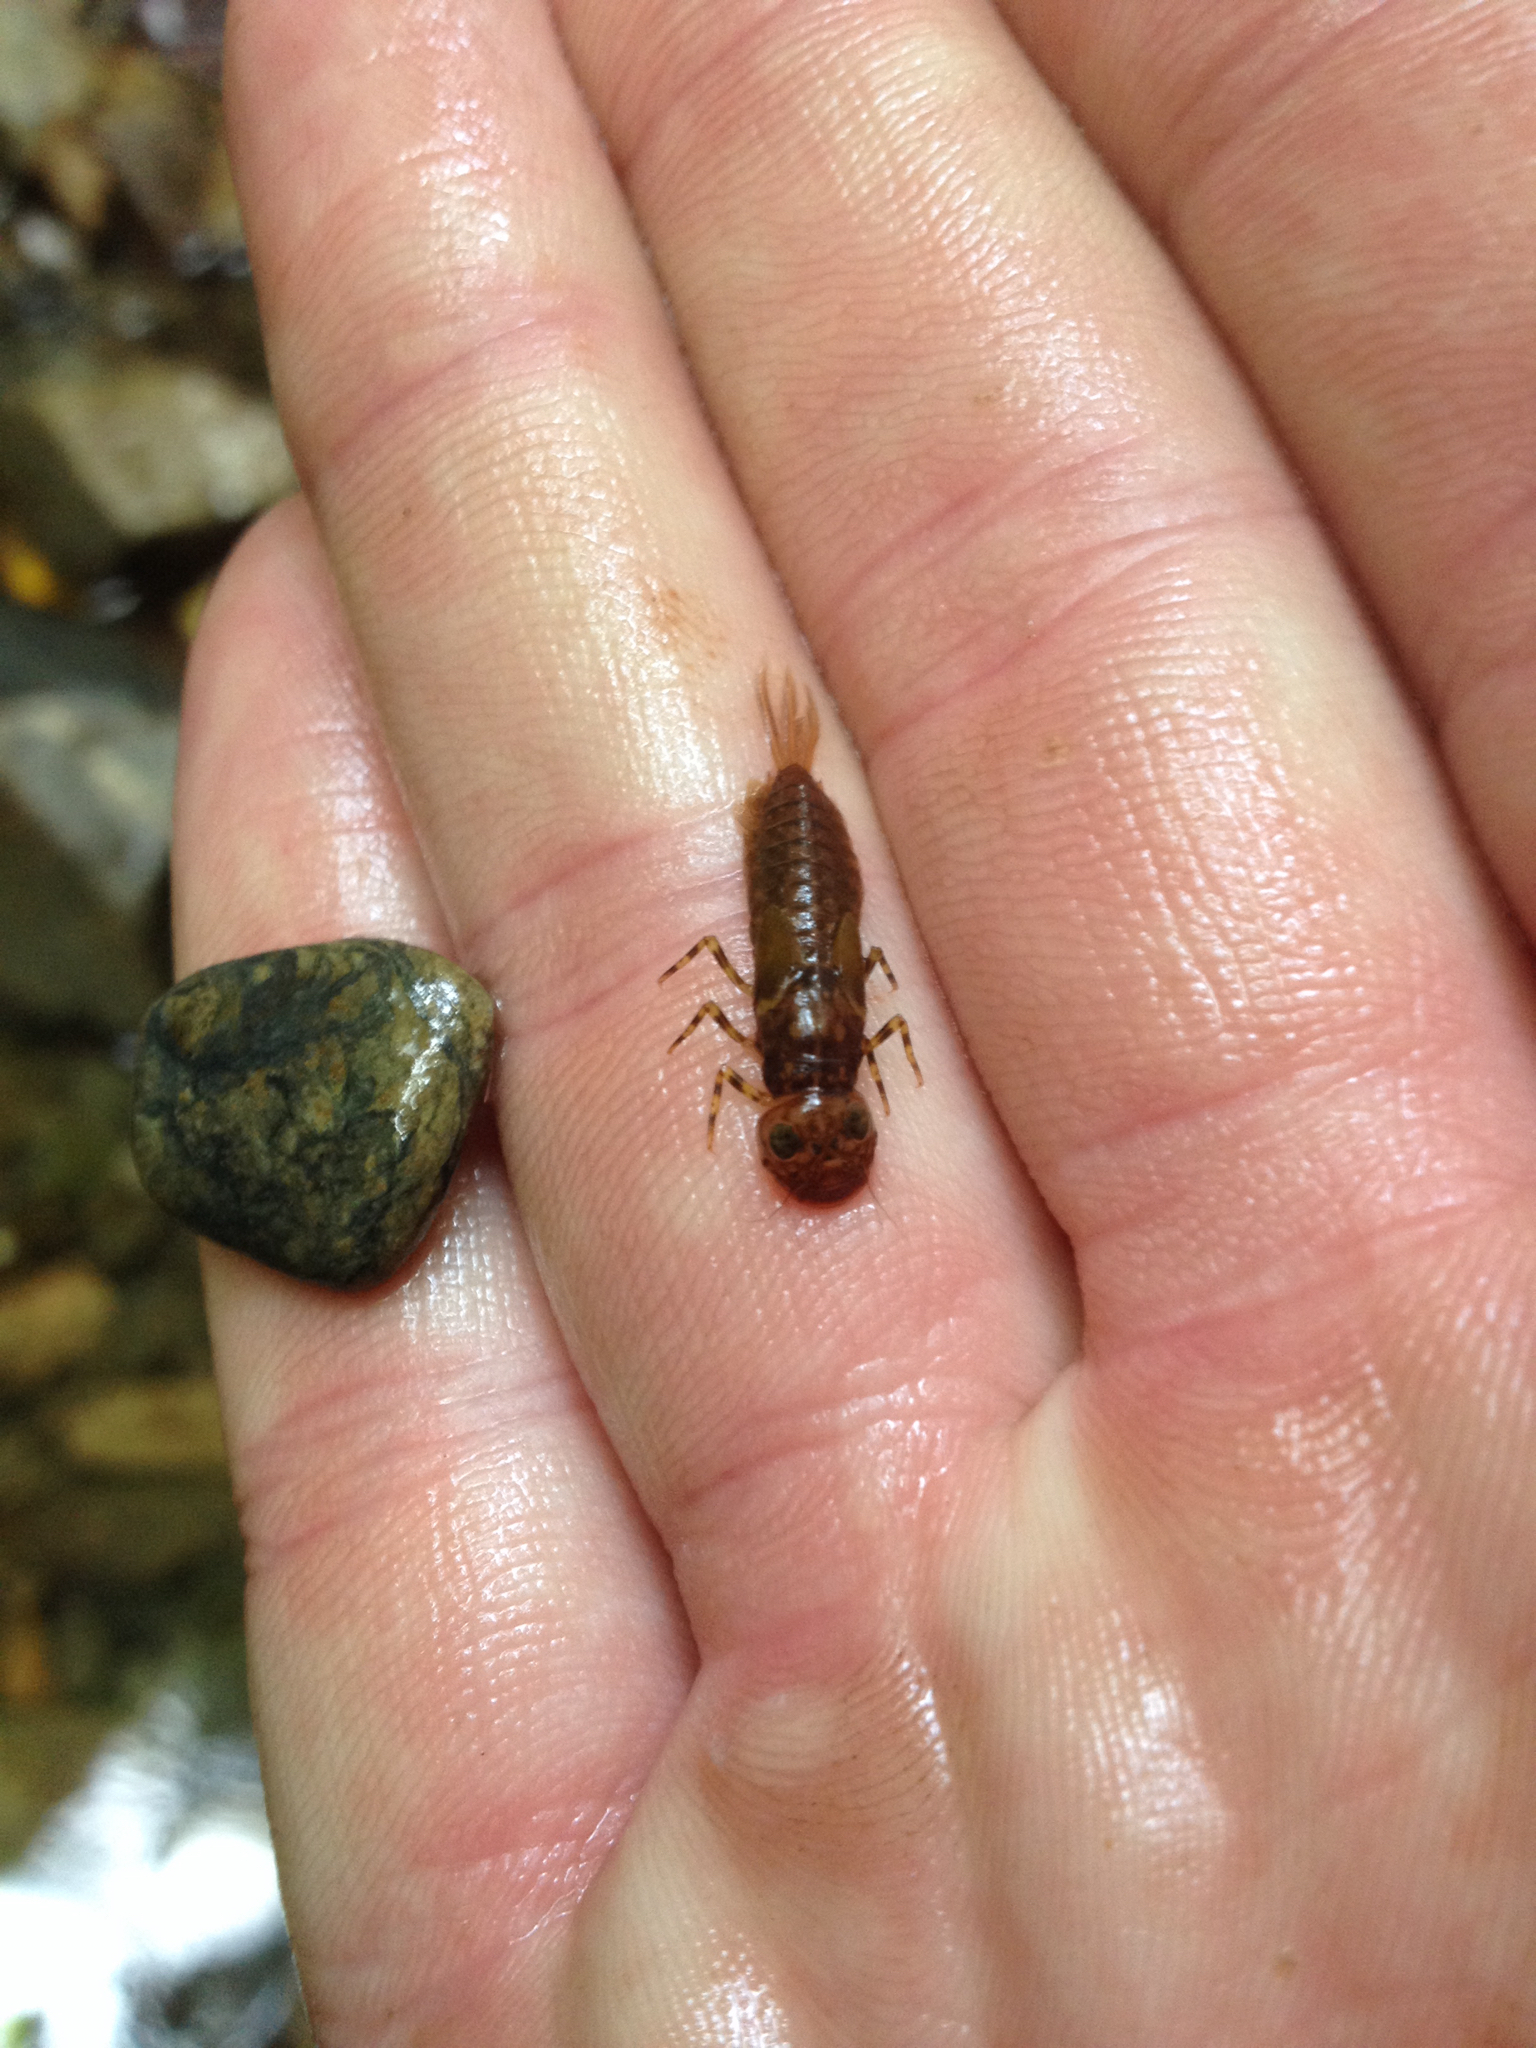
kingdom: Animalia
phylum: Arthropoda
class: Insecta
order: Ephemeroptera
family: Ameletopsidae
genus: Ameletopsis
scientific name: Ameletopsis perscitus
